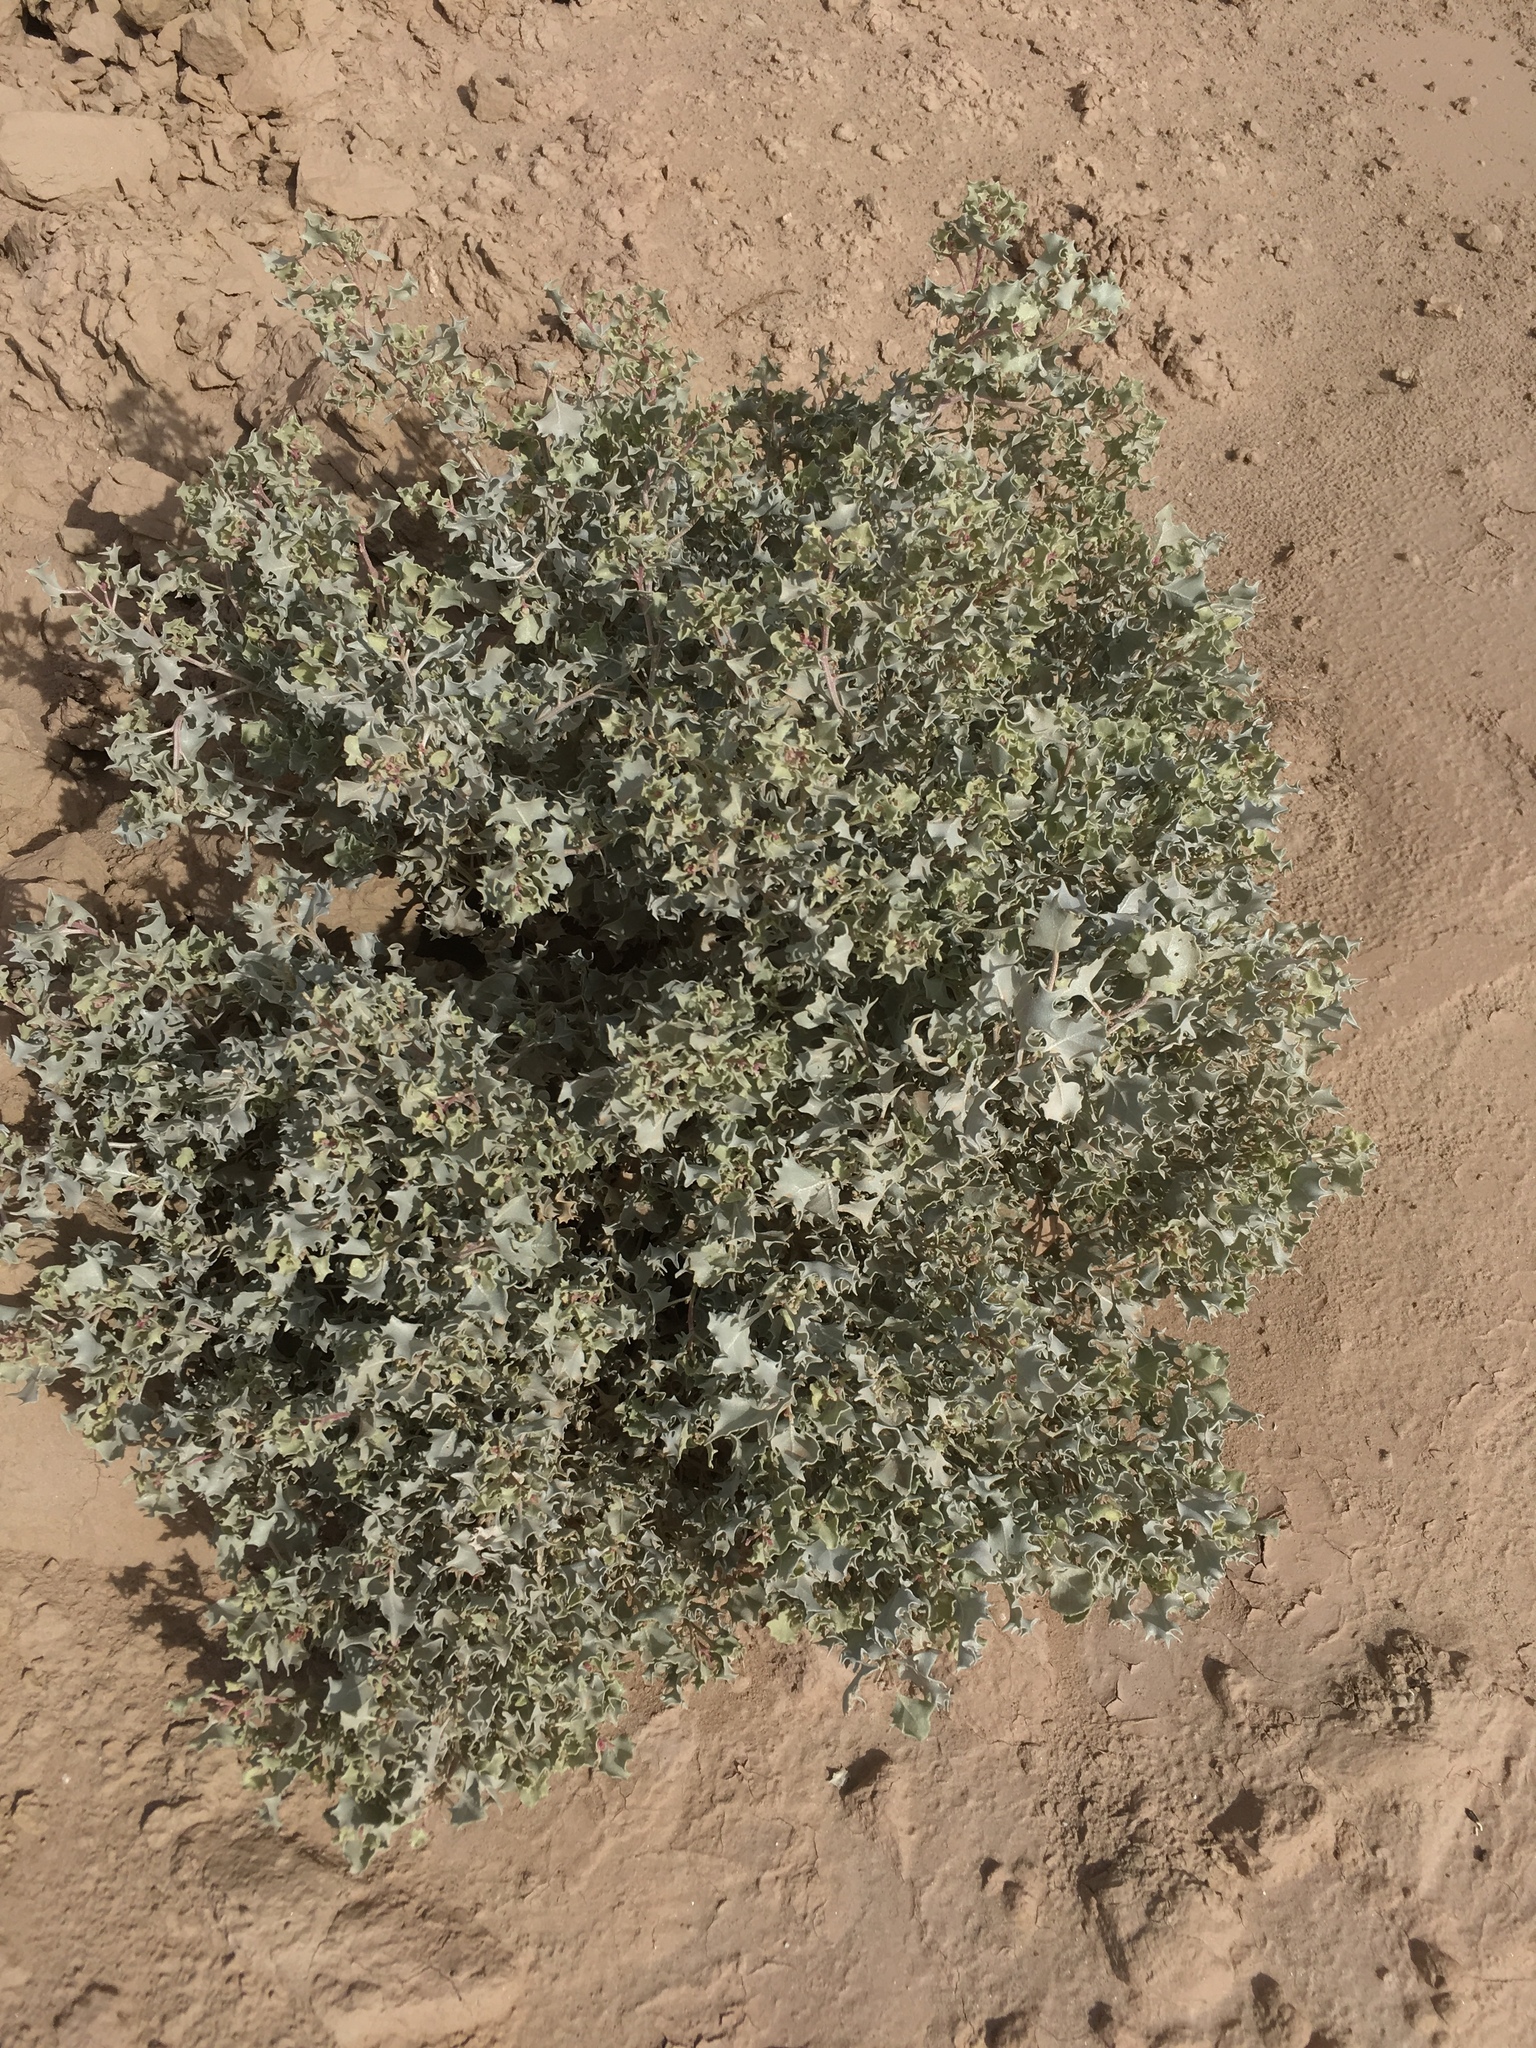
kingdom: Plantae
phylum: Tracheophyta
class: Magnoliopsida
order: Caryophyllales
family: Amaranthaceae
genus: Atriplex
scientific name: Atriplex hymenelytra
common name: Desert-holly
